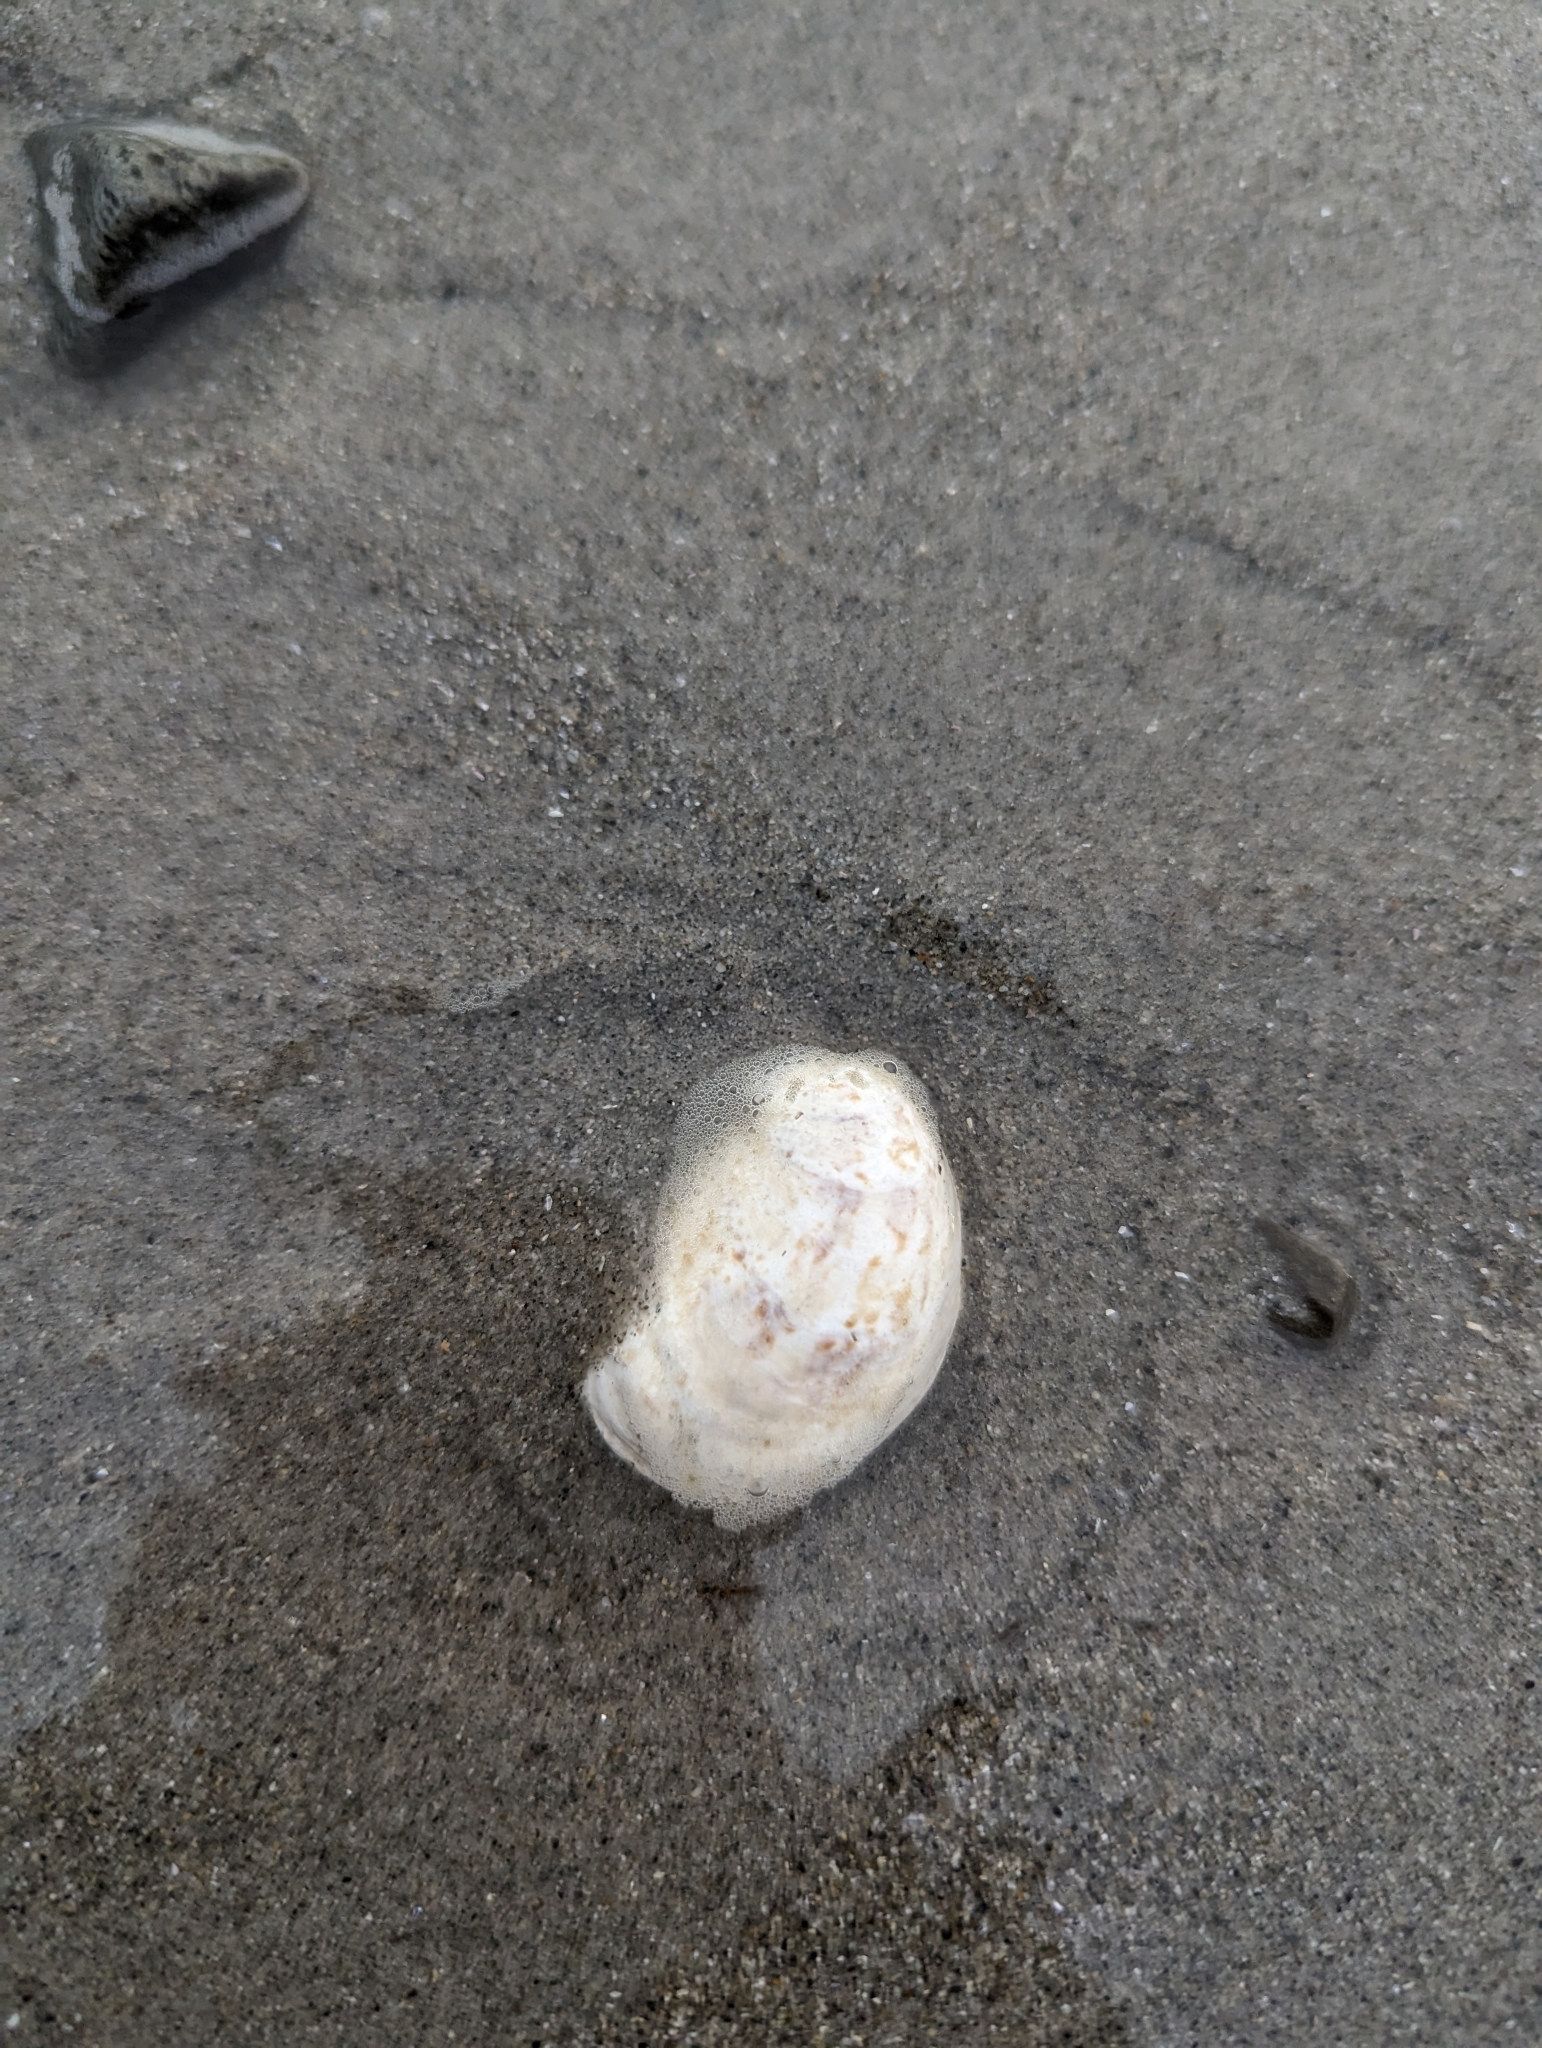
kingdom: Animalia
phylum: Mollusca
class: Gastropoda
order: Littorinimorpha
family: Calyptraeidae
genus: Crepidula
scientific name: Crepidula fornicata
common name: Slipper limpet
